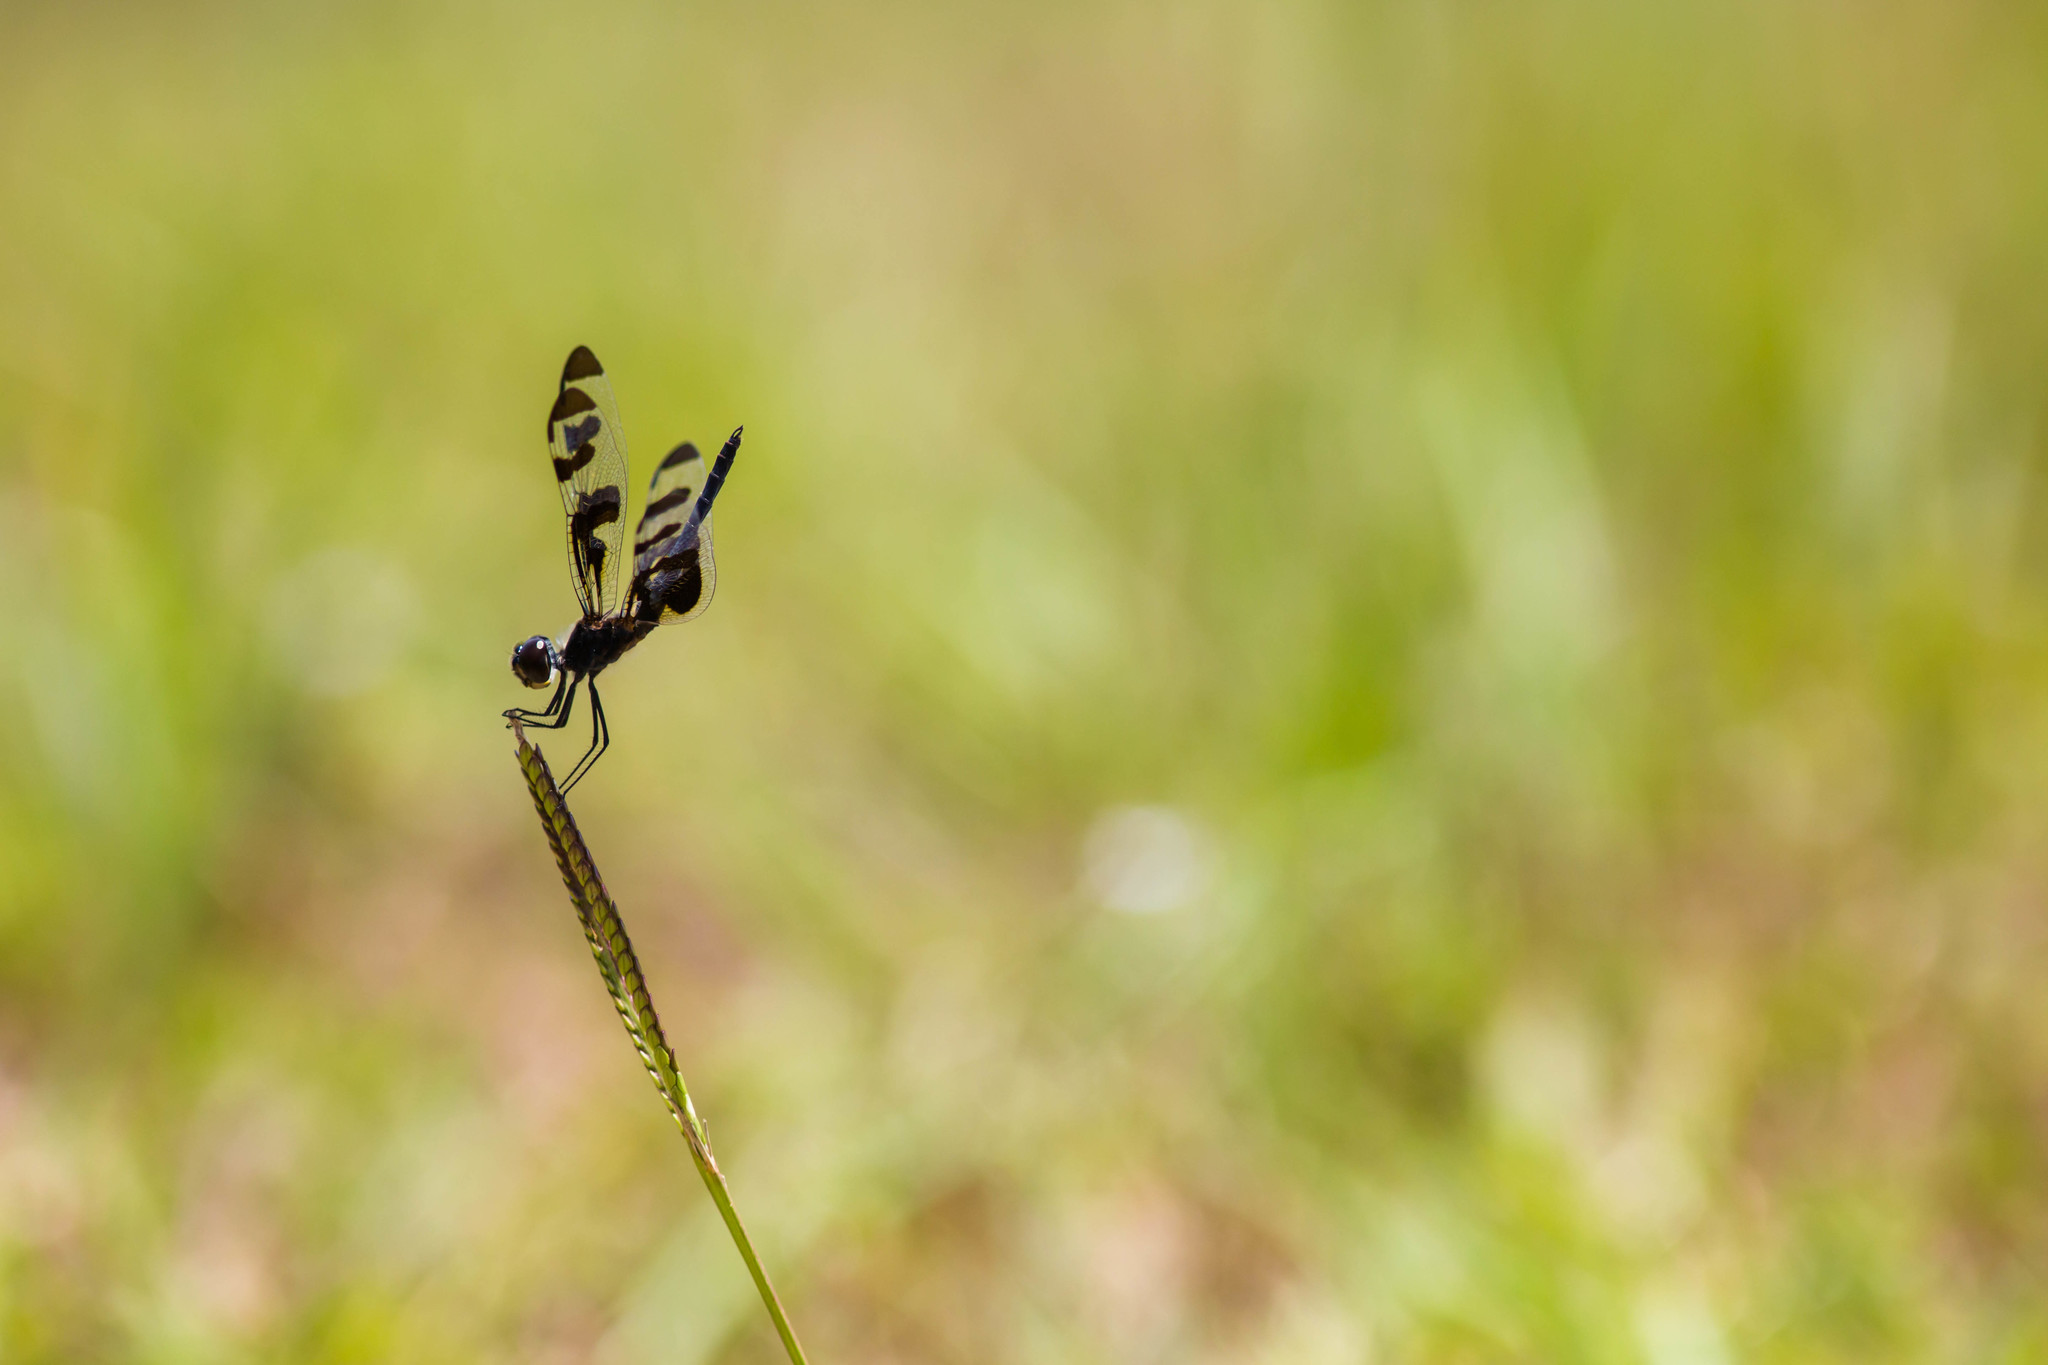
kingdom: Animalia
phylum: Arthropoda
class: Insecta
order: Odonata
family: Libellulidae
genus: Celithemis
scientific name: Celithemis fasciata
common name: Banded pennant
